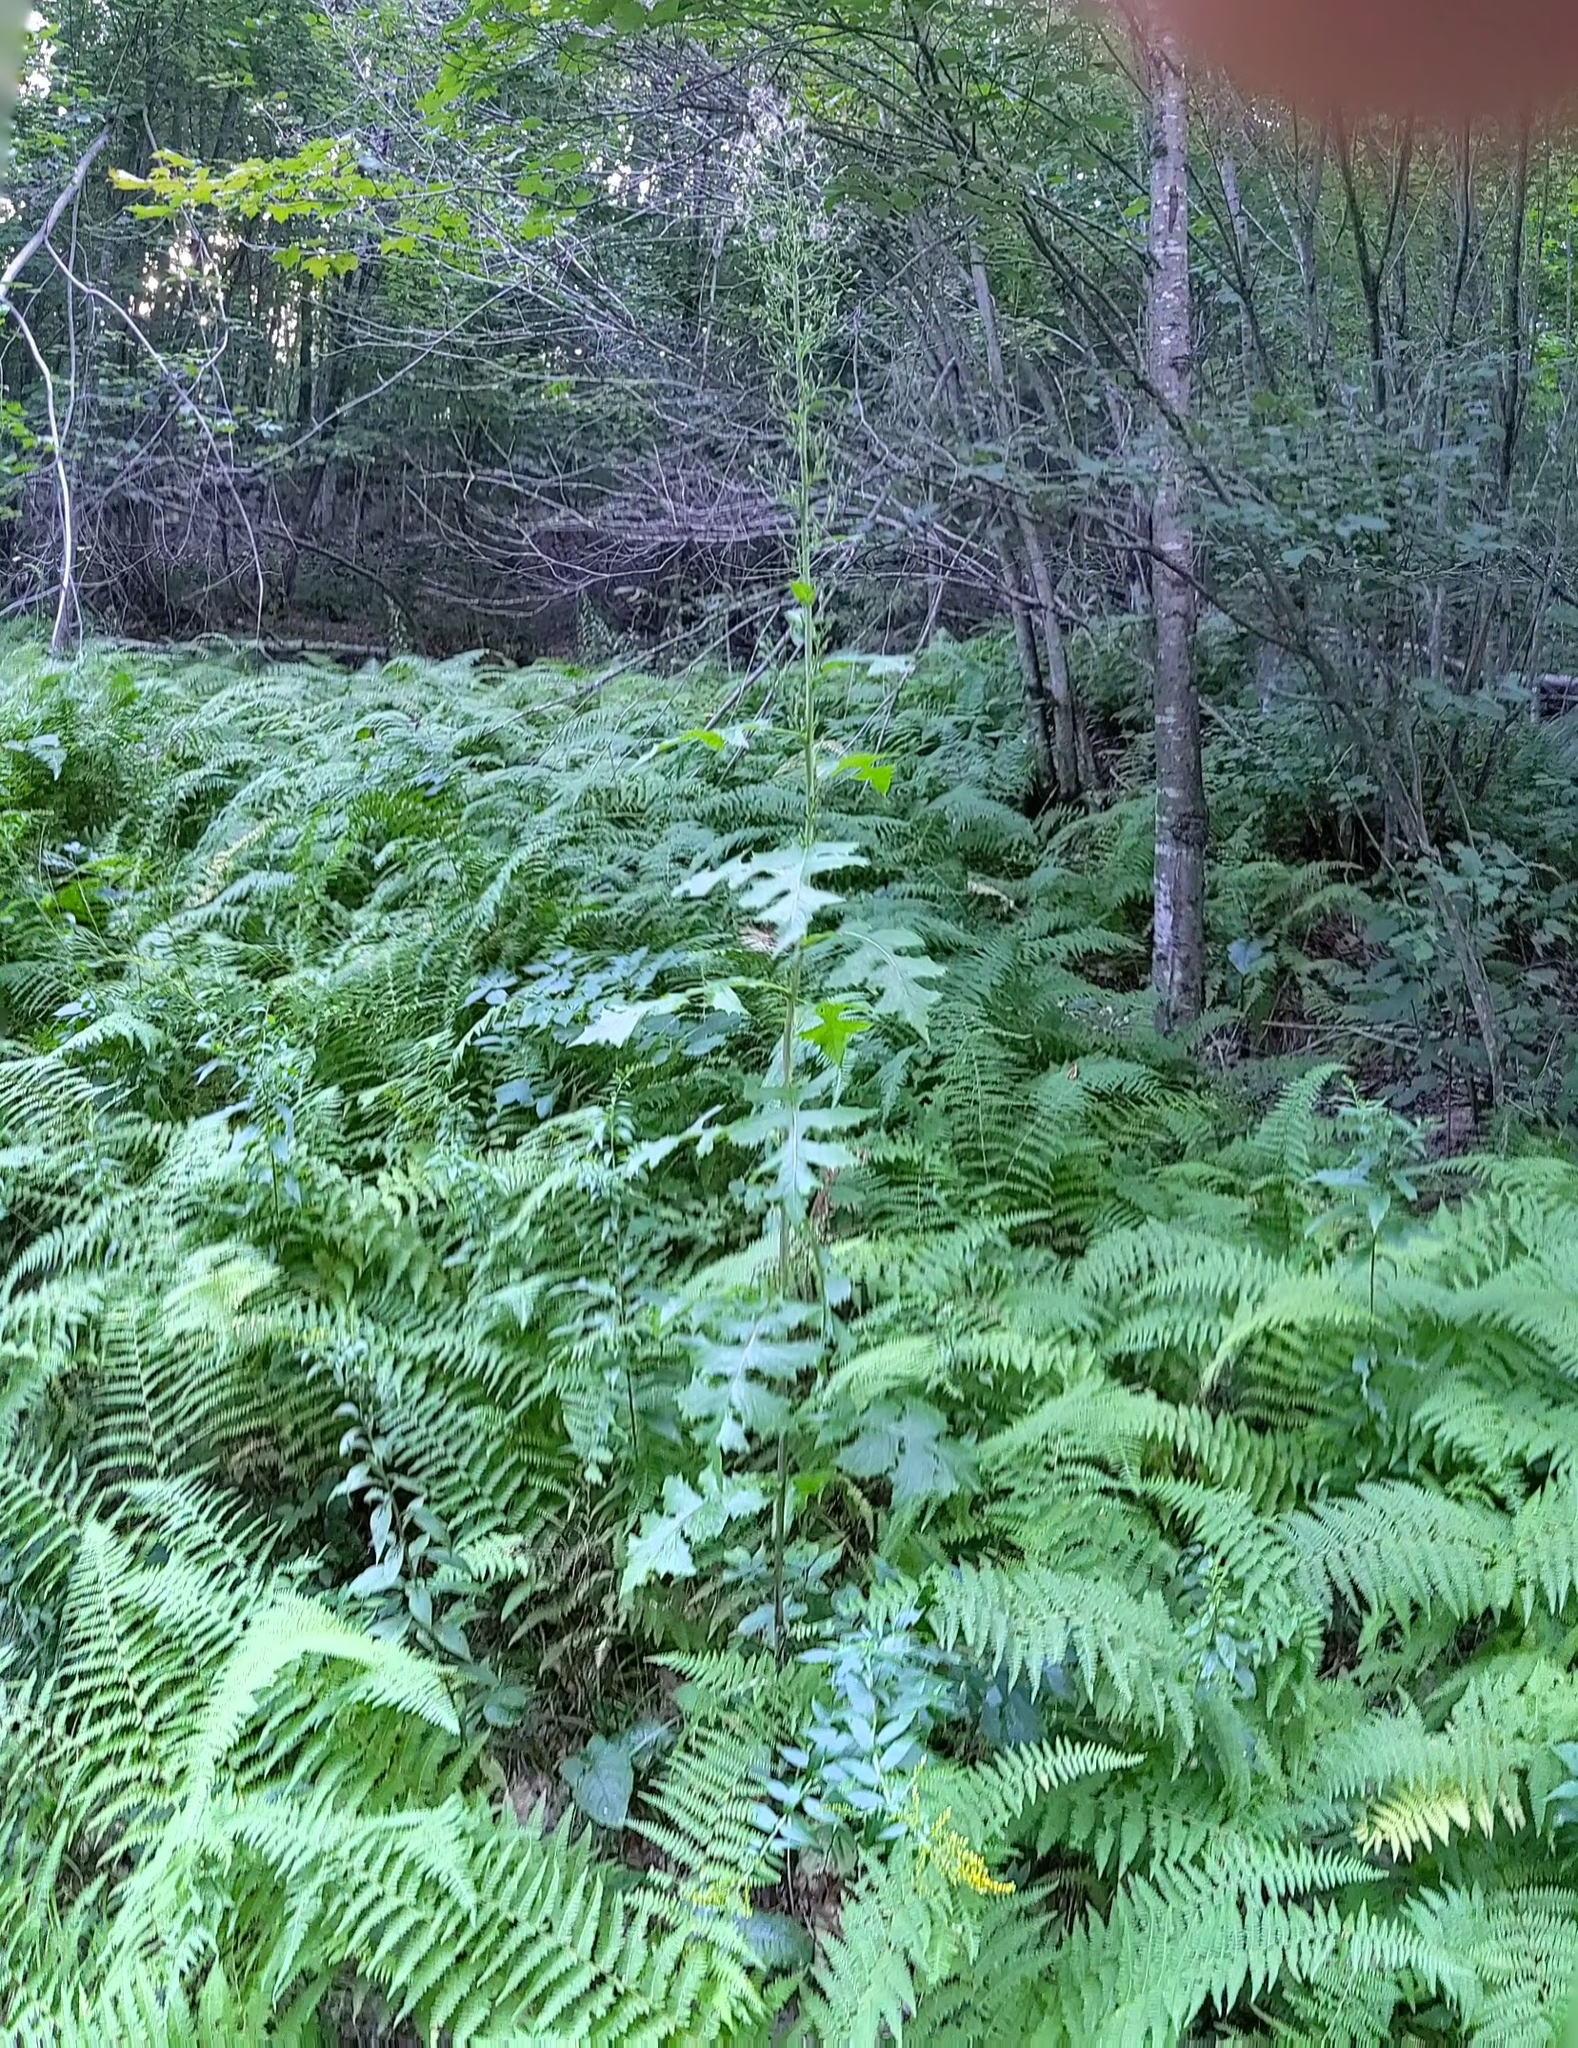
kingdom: Plantae
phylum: Tracheophyta
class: Magnoliopsida
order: Asterales
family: Asteraceae
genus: Lactuca
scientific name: Lactuca biennis
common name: Blue wood lettuce
